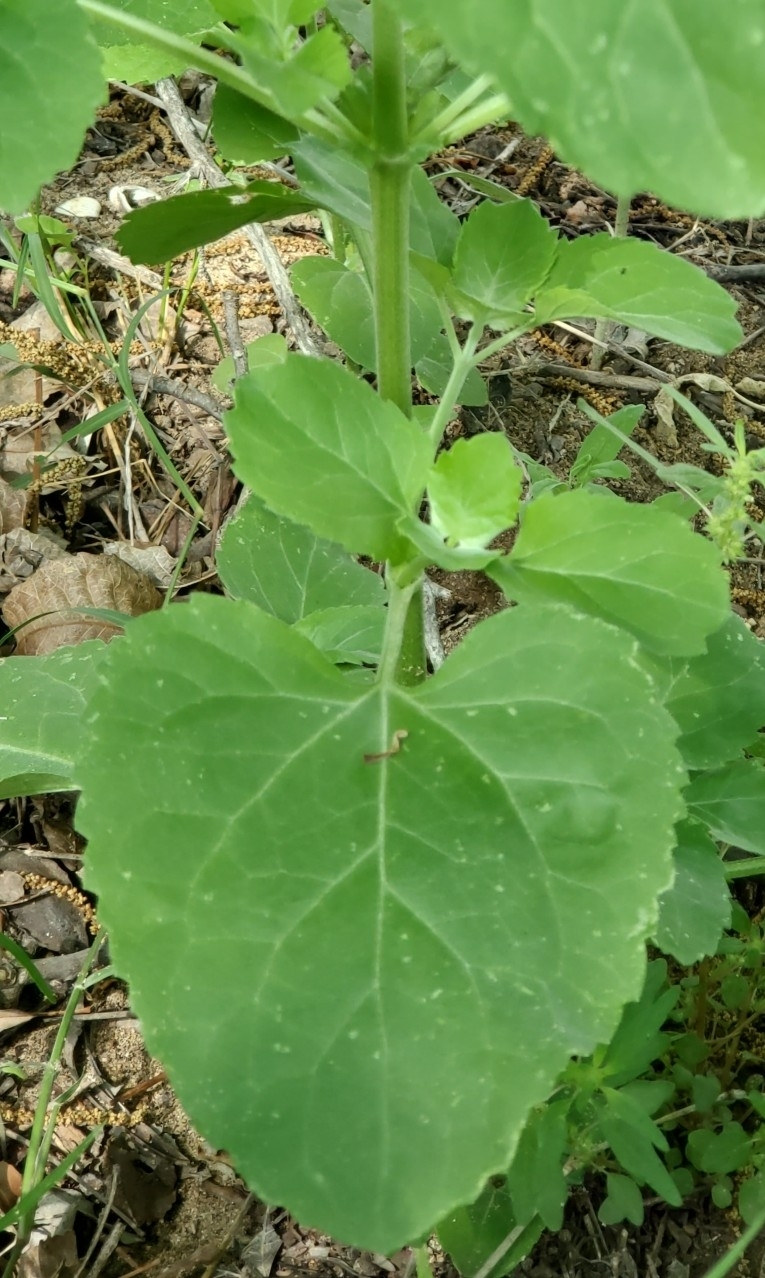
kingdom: Plantae
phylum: Tracheophyta
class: Magnoliopsida
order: Asterales
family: Asteraceae
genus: Verbesina
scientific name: Verbesina encelioides
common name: Golden crownbeard
